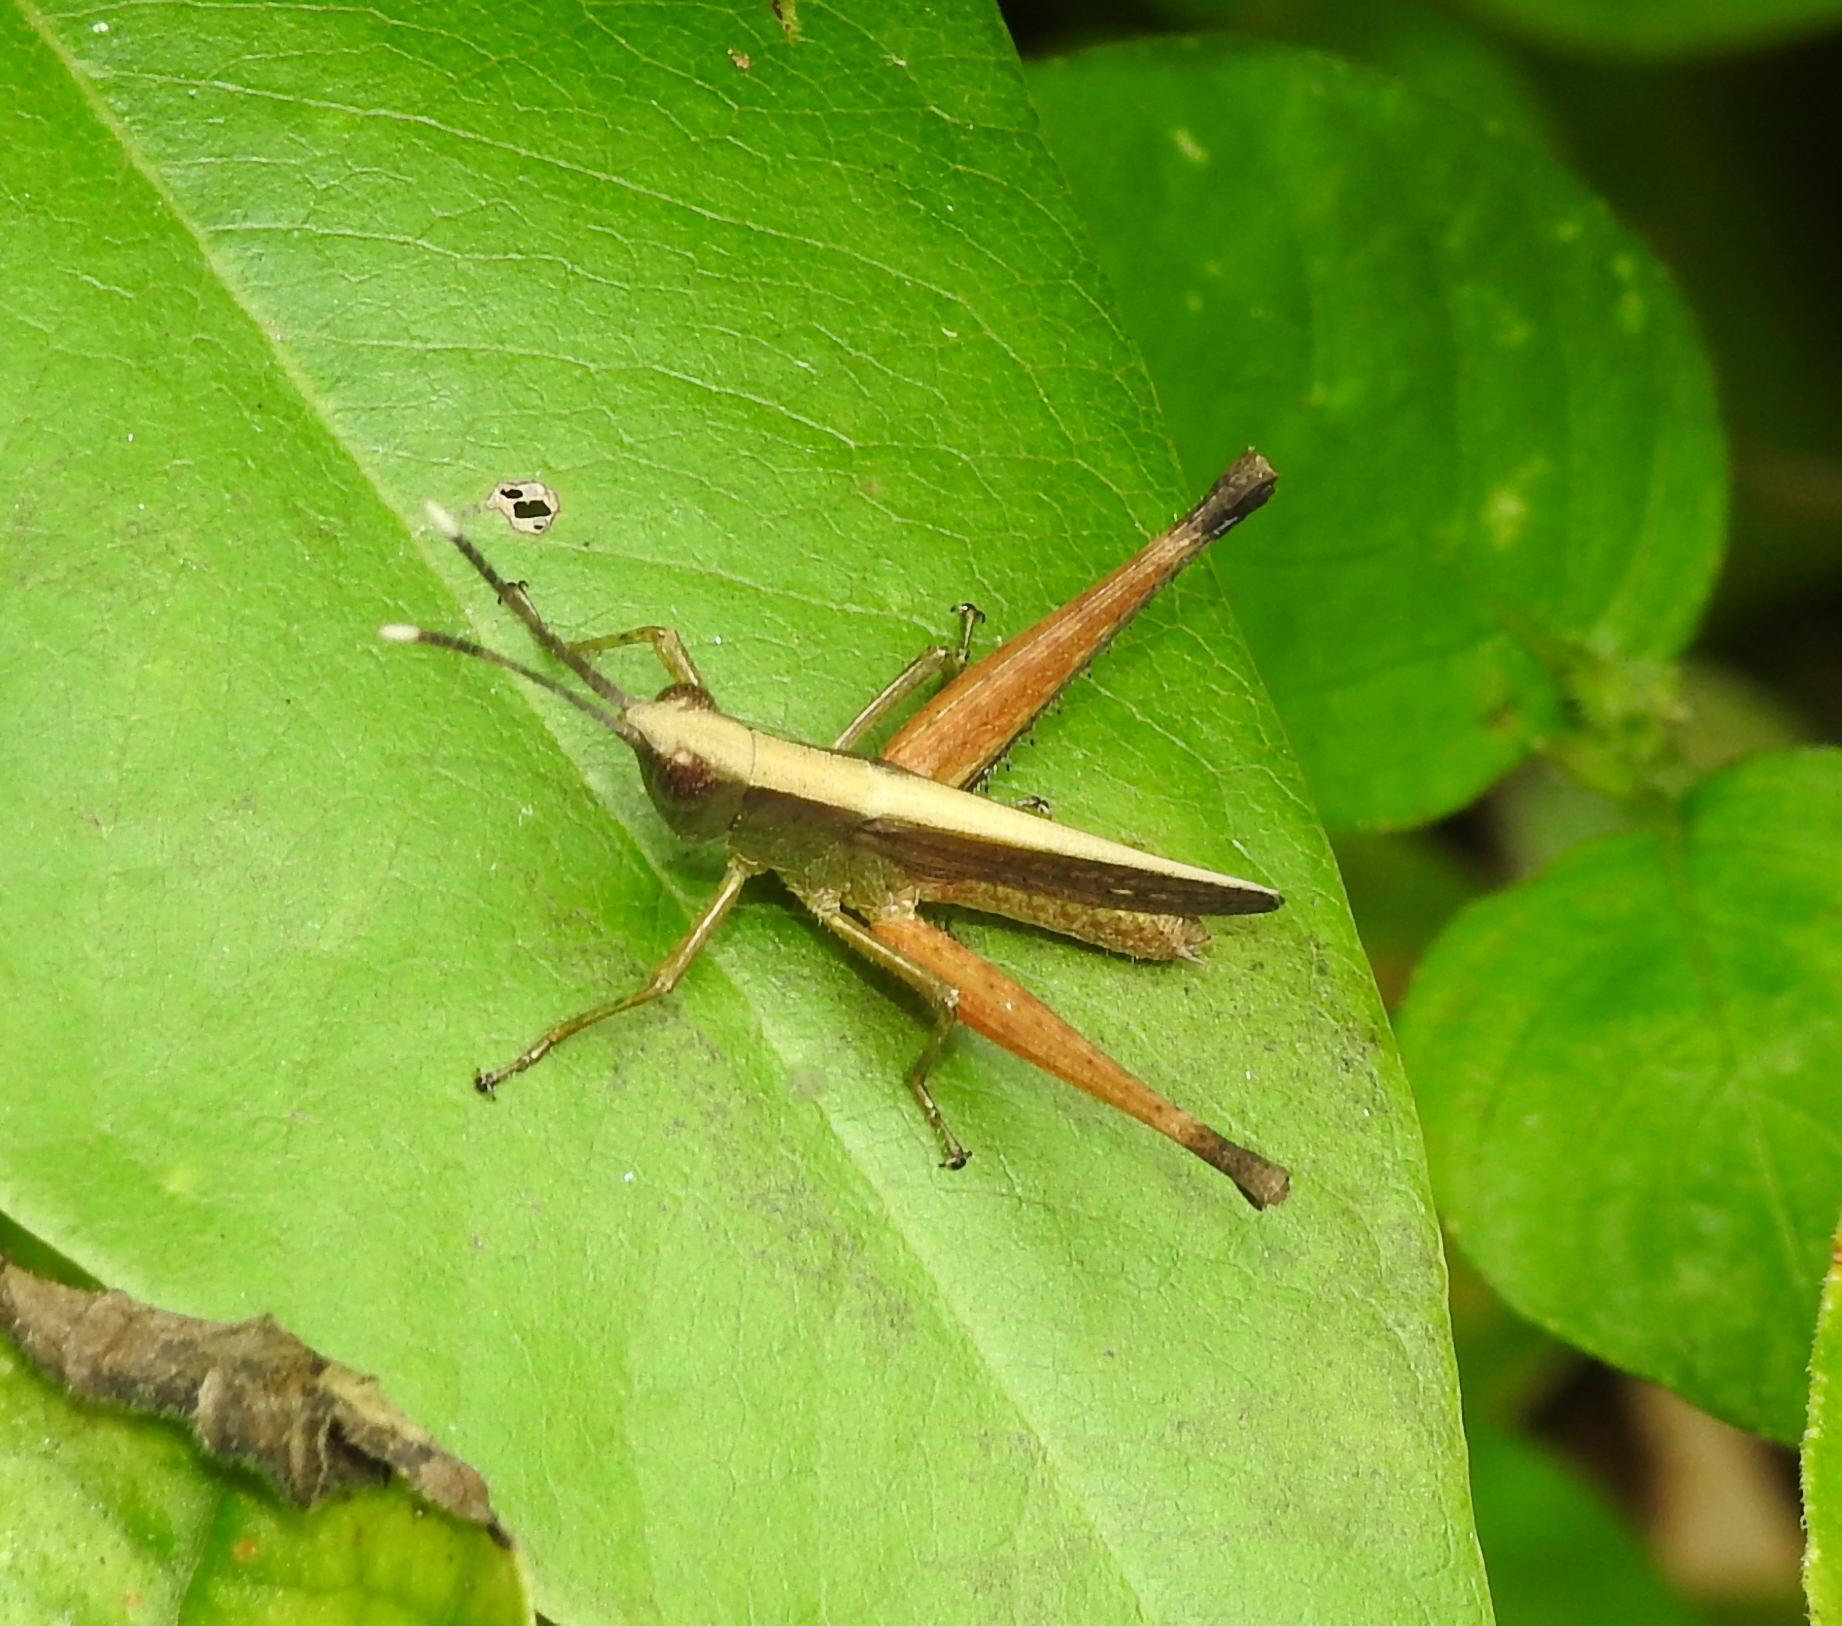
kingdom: Animalia
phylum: Arthropoda
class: Insecta
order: Orthoptera
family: Acrididae
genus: Phlaeoba
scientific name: Phlaeoba antennata
